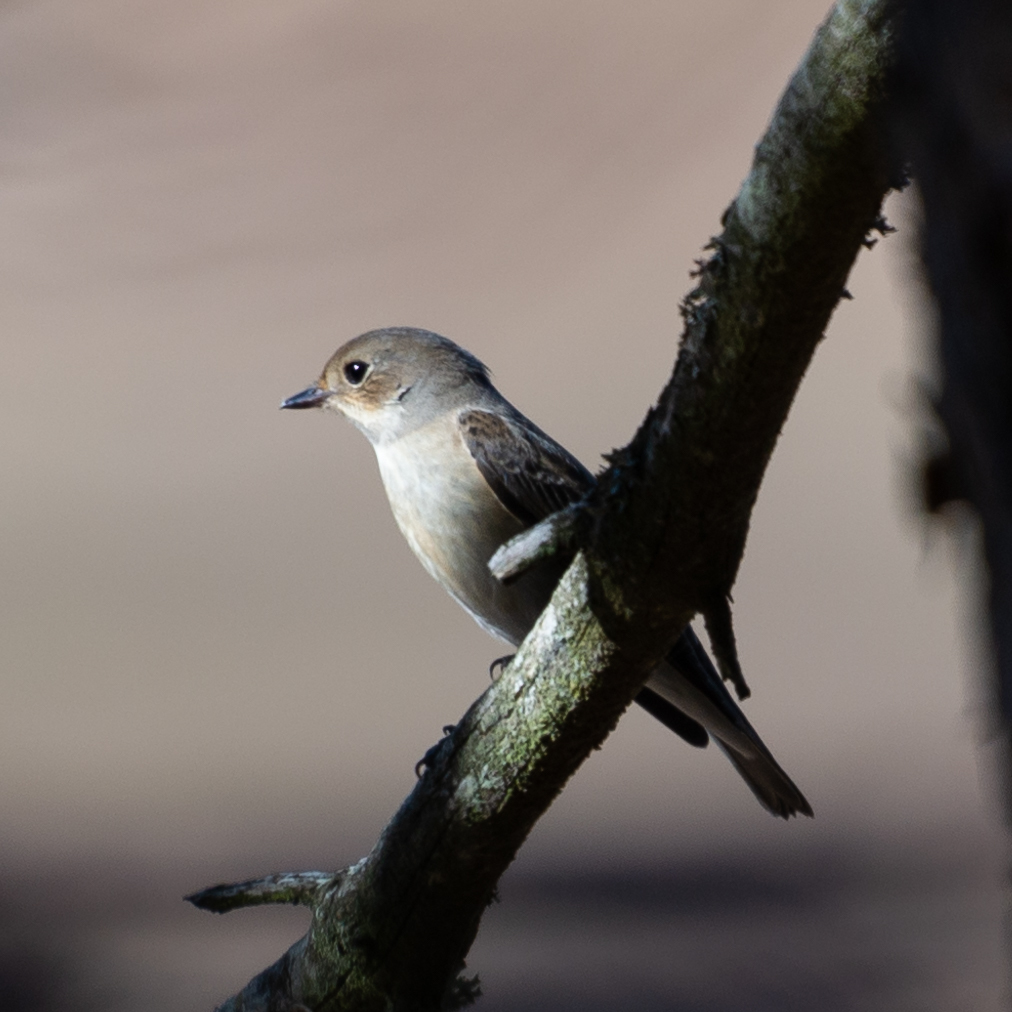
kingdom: Animalia
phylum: Chordata
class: Aves
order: Passeriformes
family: Muscicapidae
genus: Ficedula
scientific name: Ficedula hypoleuca
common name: European pied flycatcher
